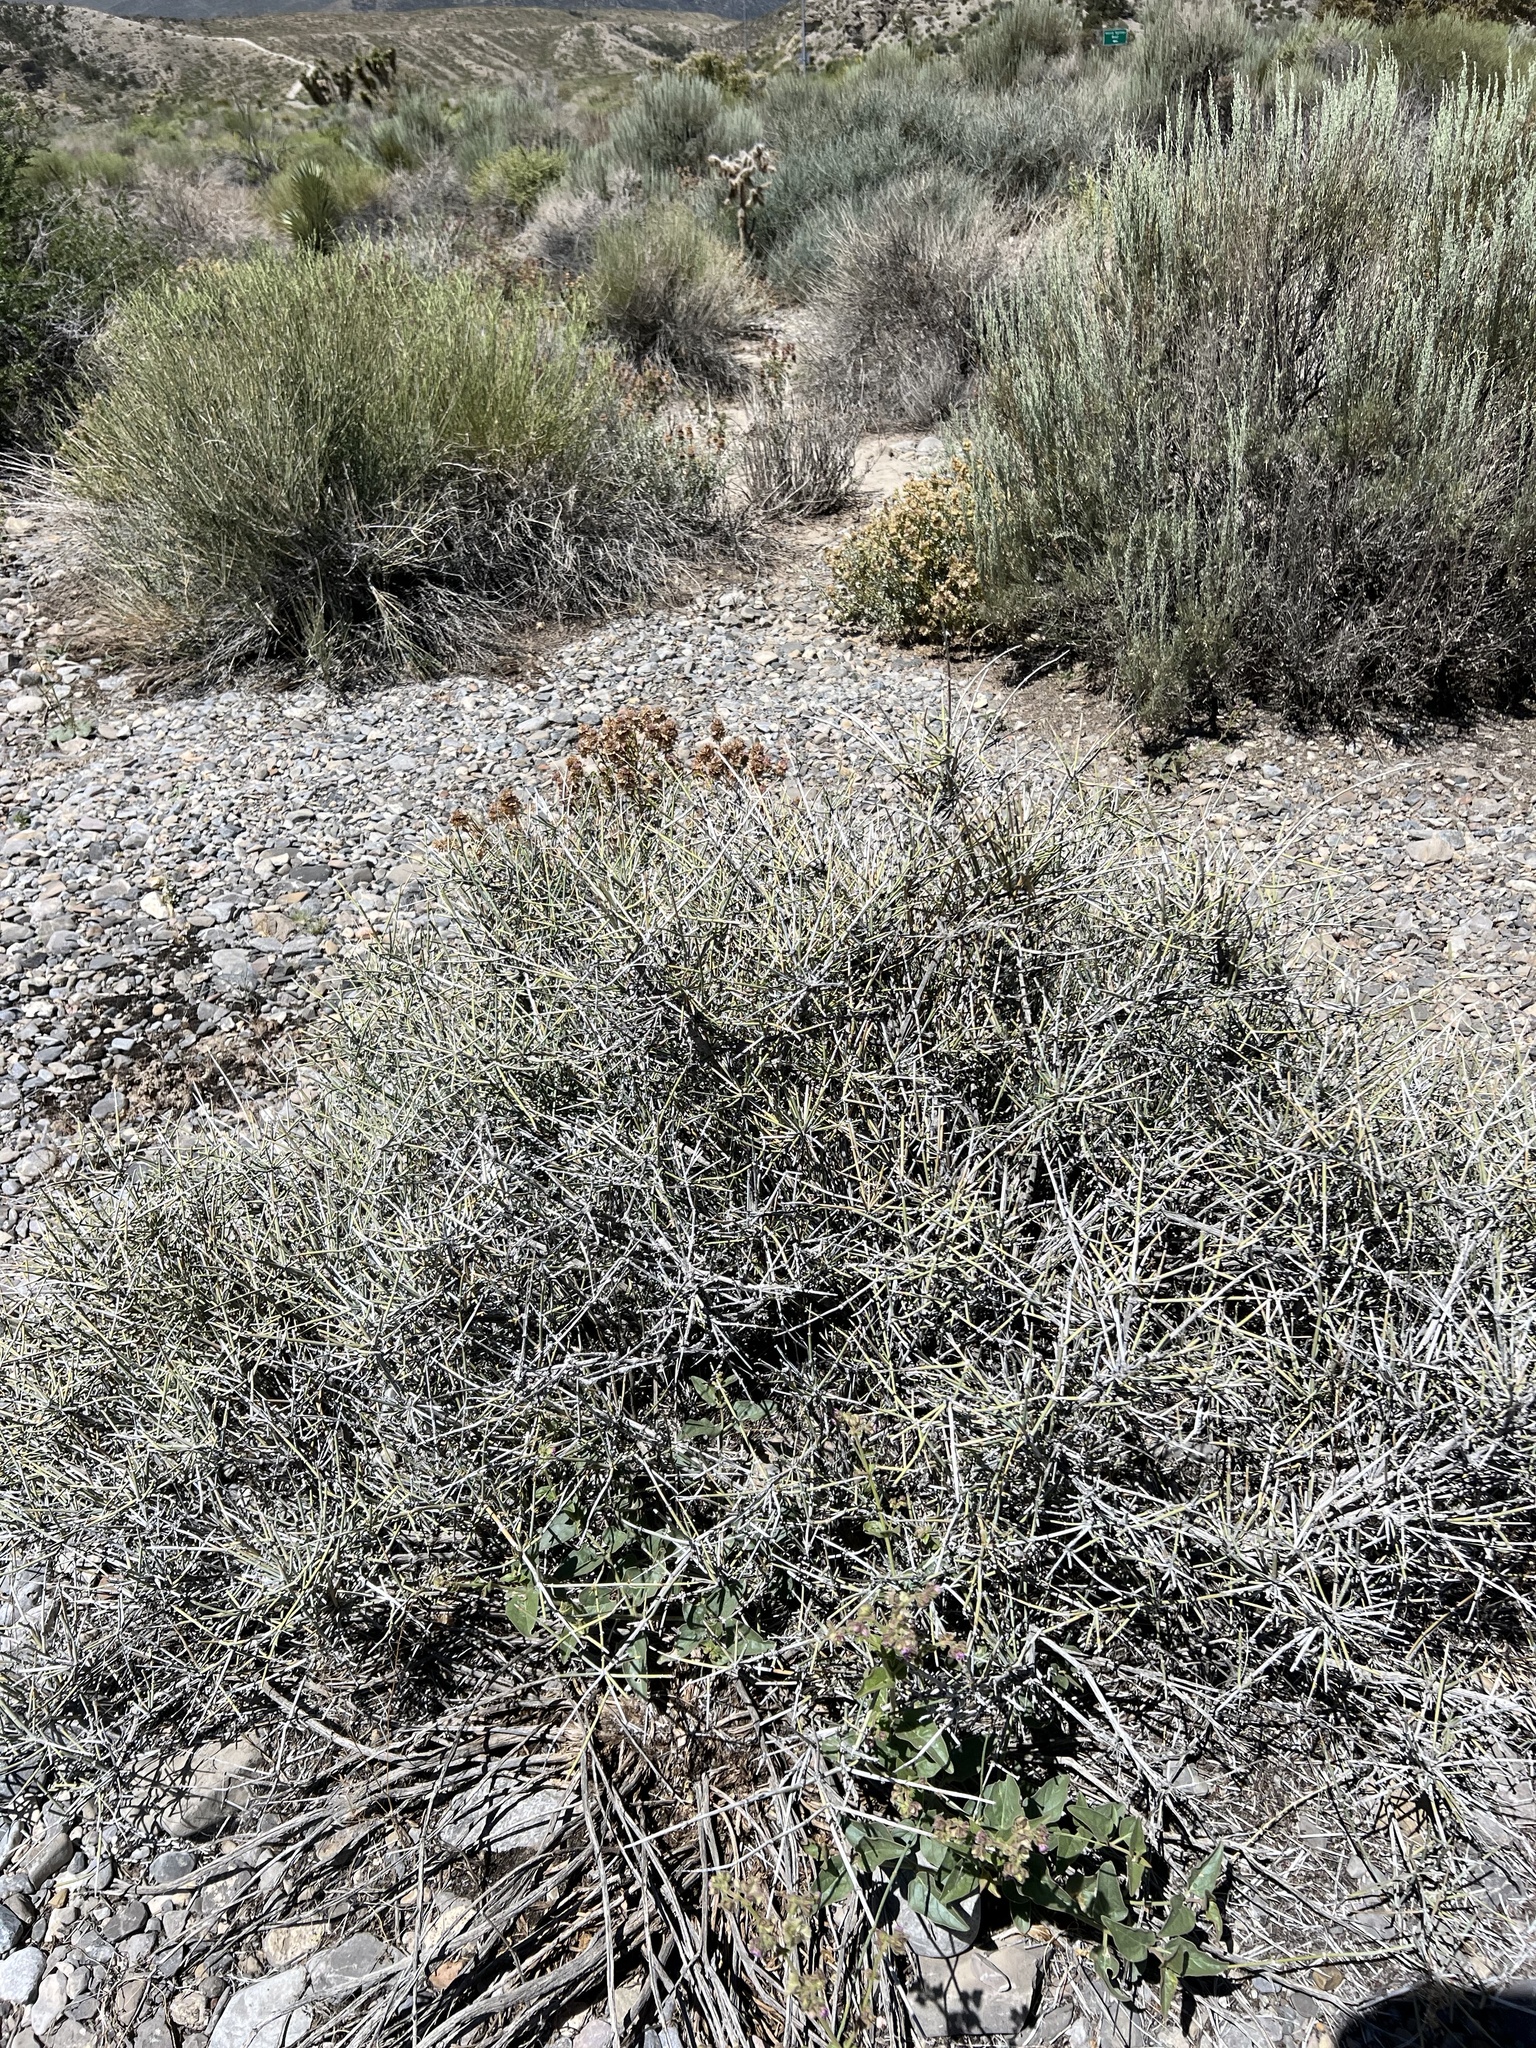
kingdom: Plantae
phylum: Tracheophyta
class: Gnetopsida
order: Ephedrales
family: Ephedraceae
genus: Ephedra
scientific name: Ephedra nevadensis
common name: Gray ephedra
